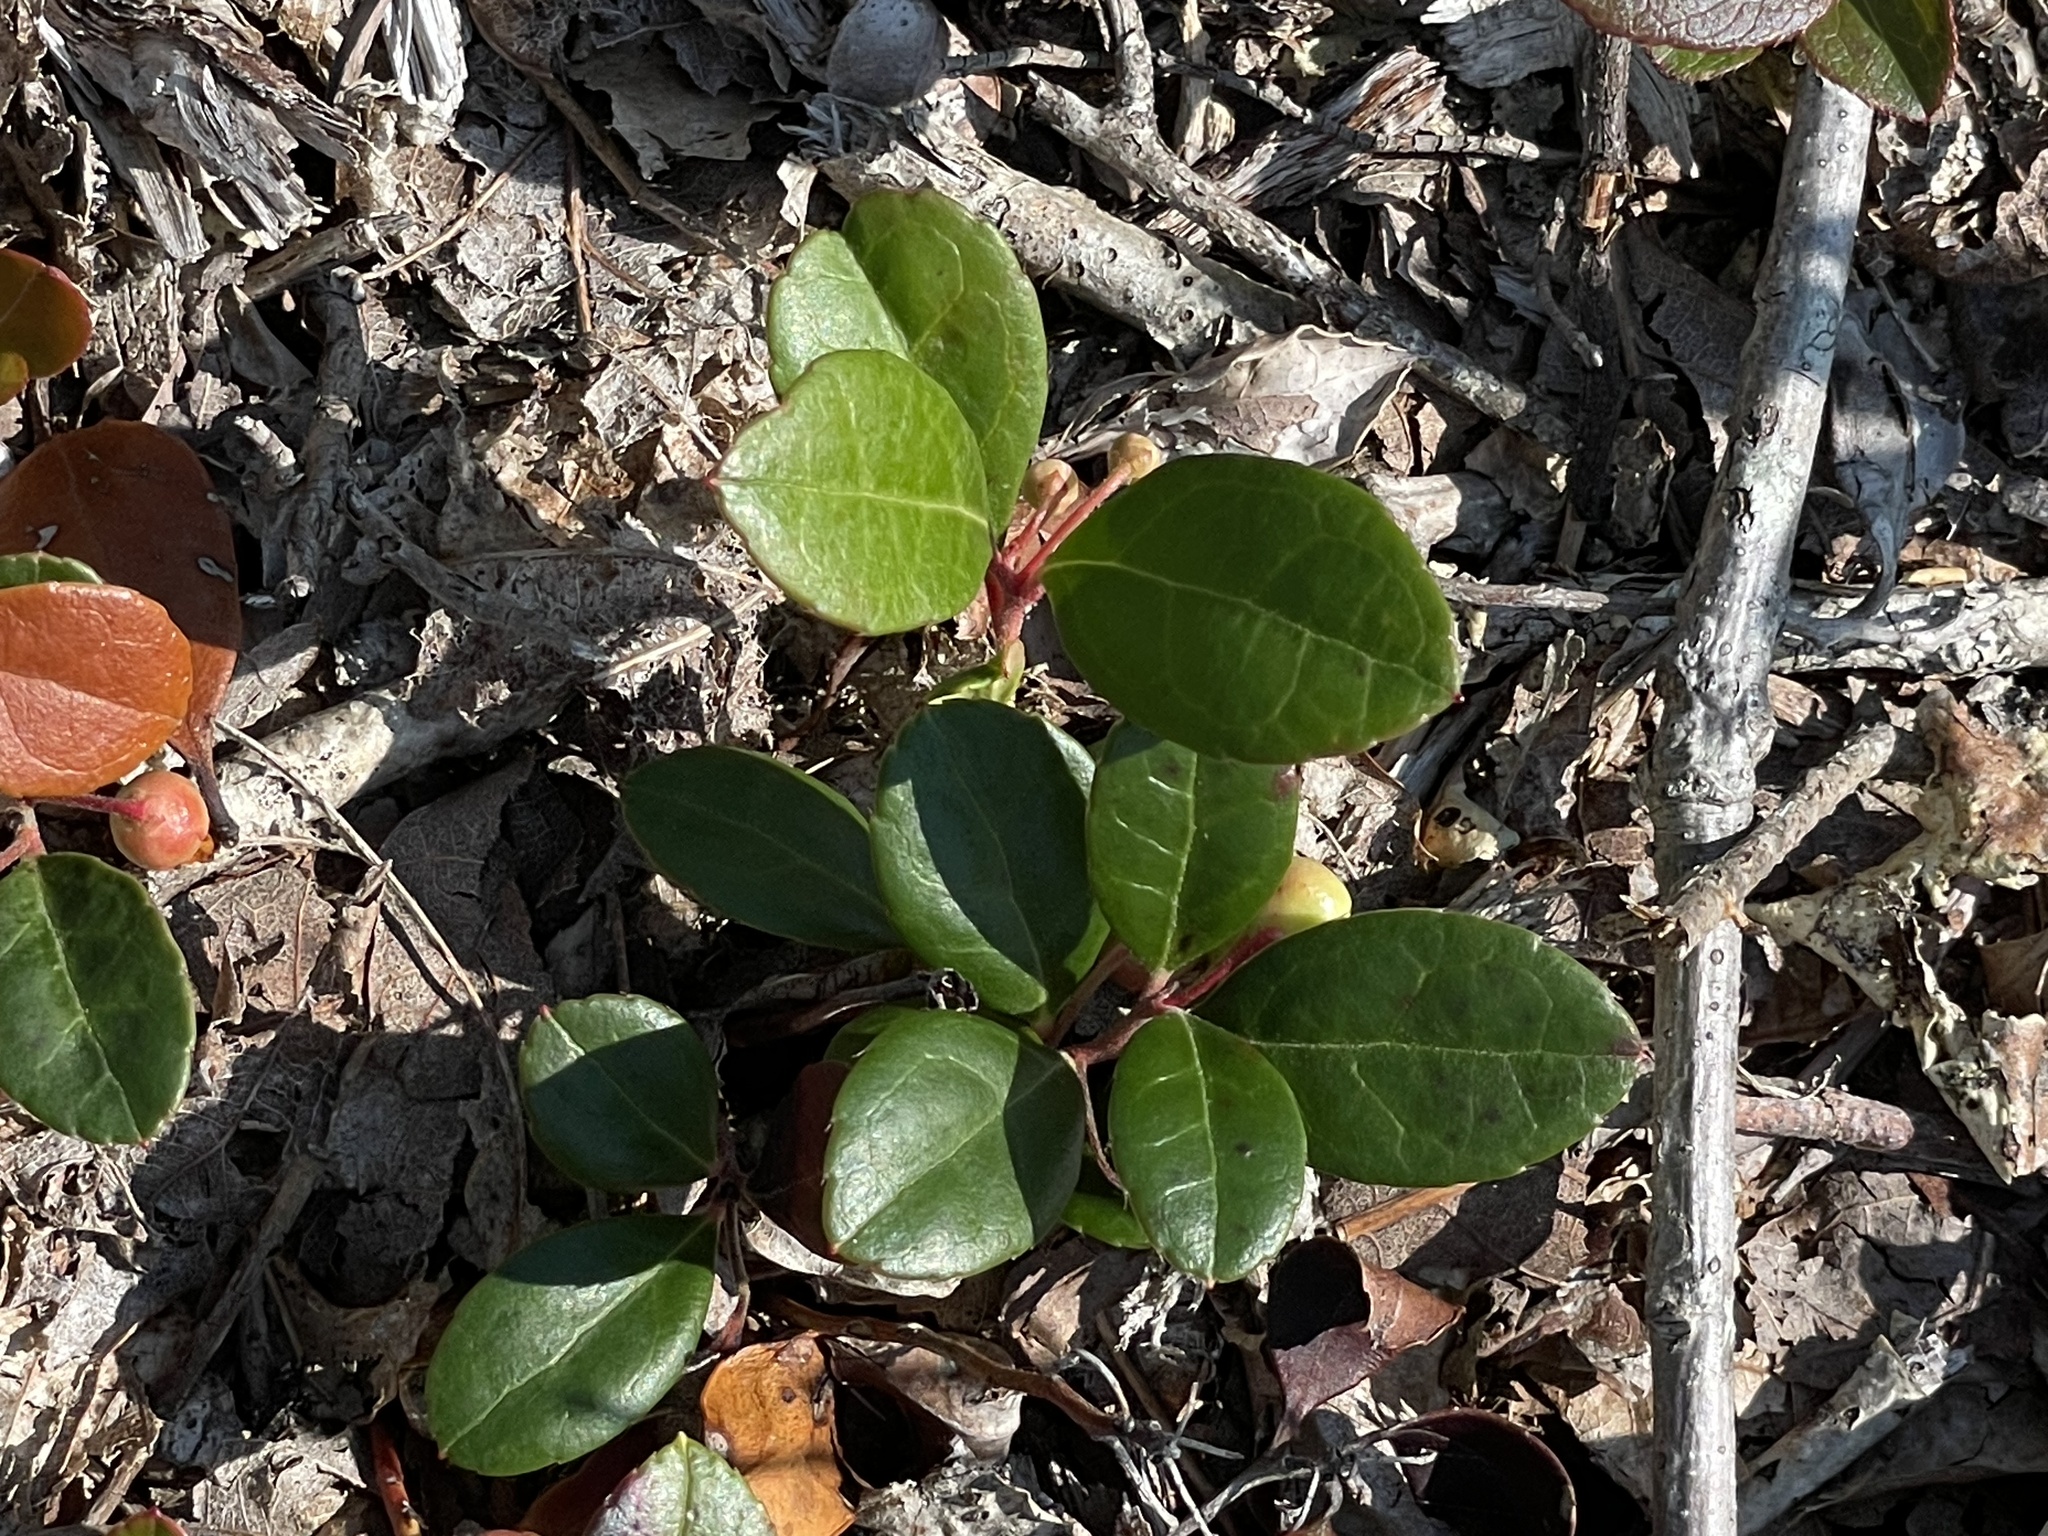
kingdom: Plantae
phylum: Tracheophyta
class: Magnoliopsida
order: Ericales
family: Ericaceae
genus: Gaultheria
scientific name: Gaultheria procumbens
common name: Checkerberry
